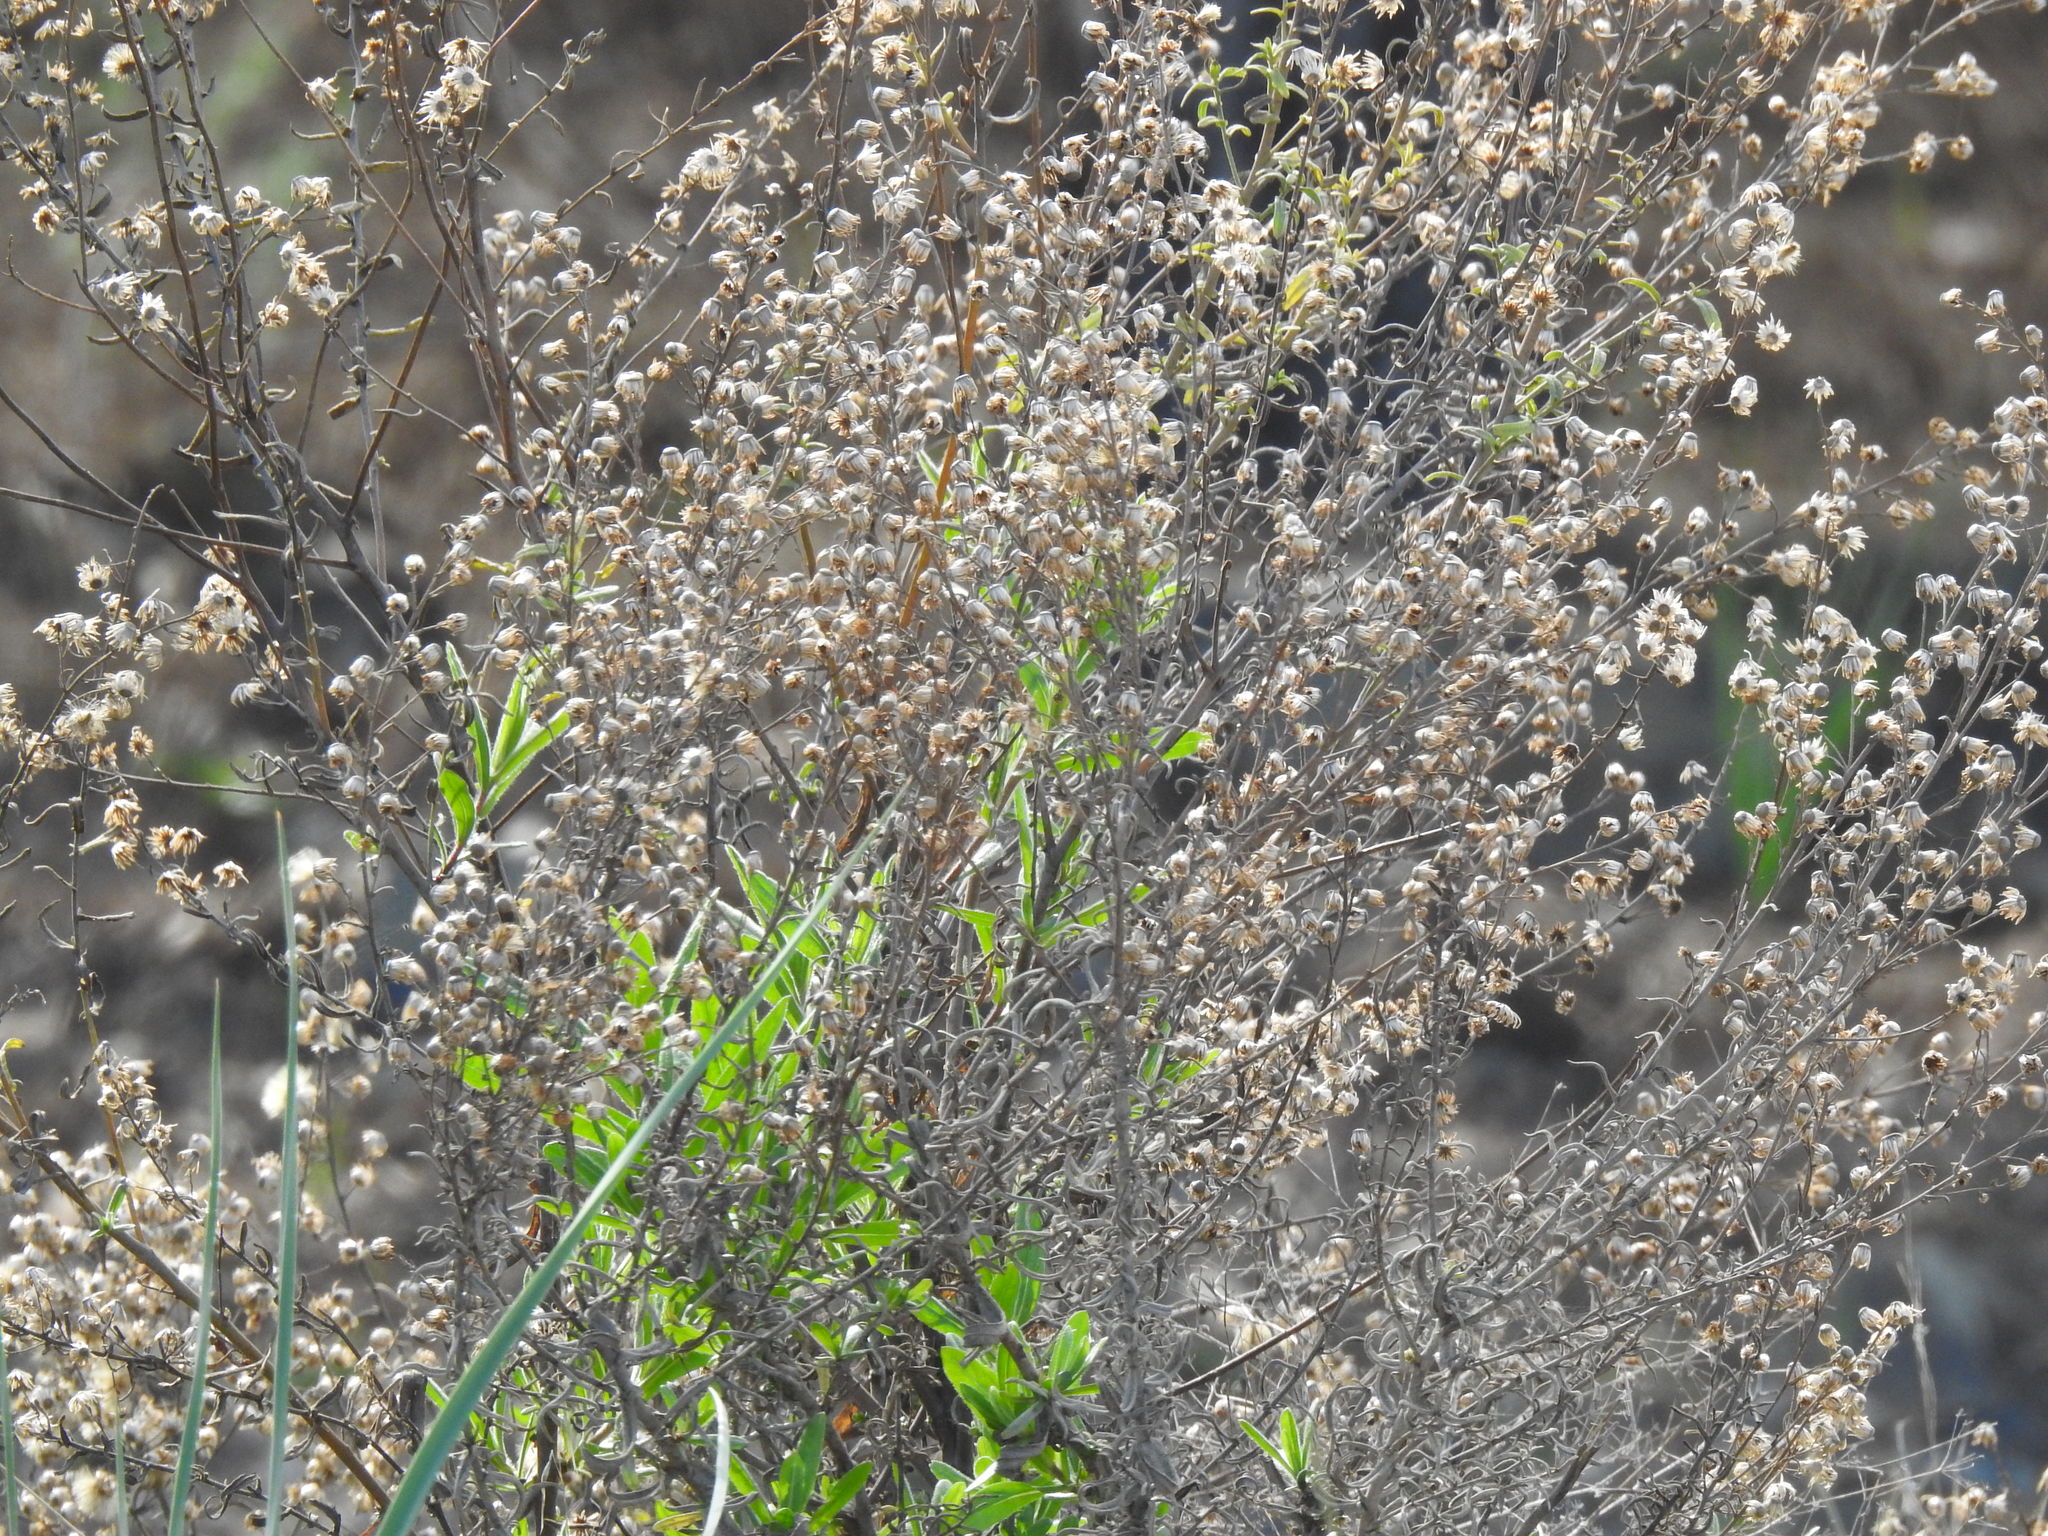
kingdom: Plantae
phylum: Tracheophyta
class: Magnoliopsida
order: Asterales
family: Asteraceae
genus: Dittrichia
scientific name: Dittrichia viscosa
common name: Woody fleabane
